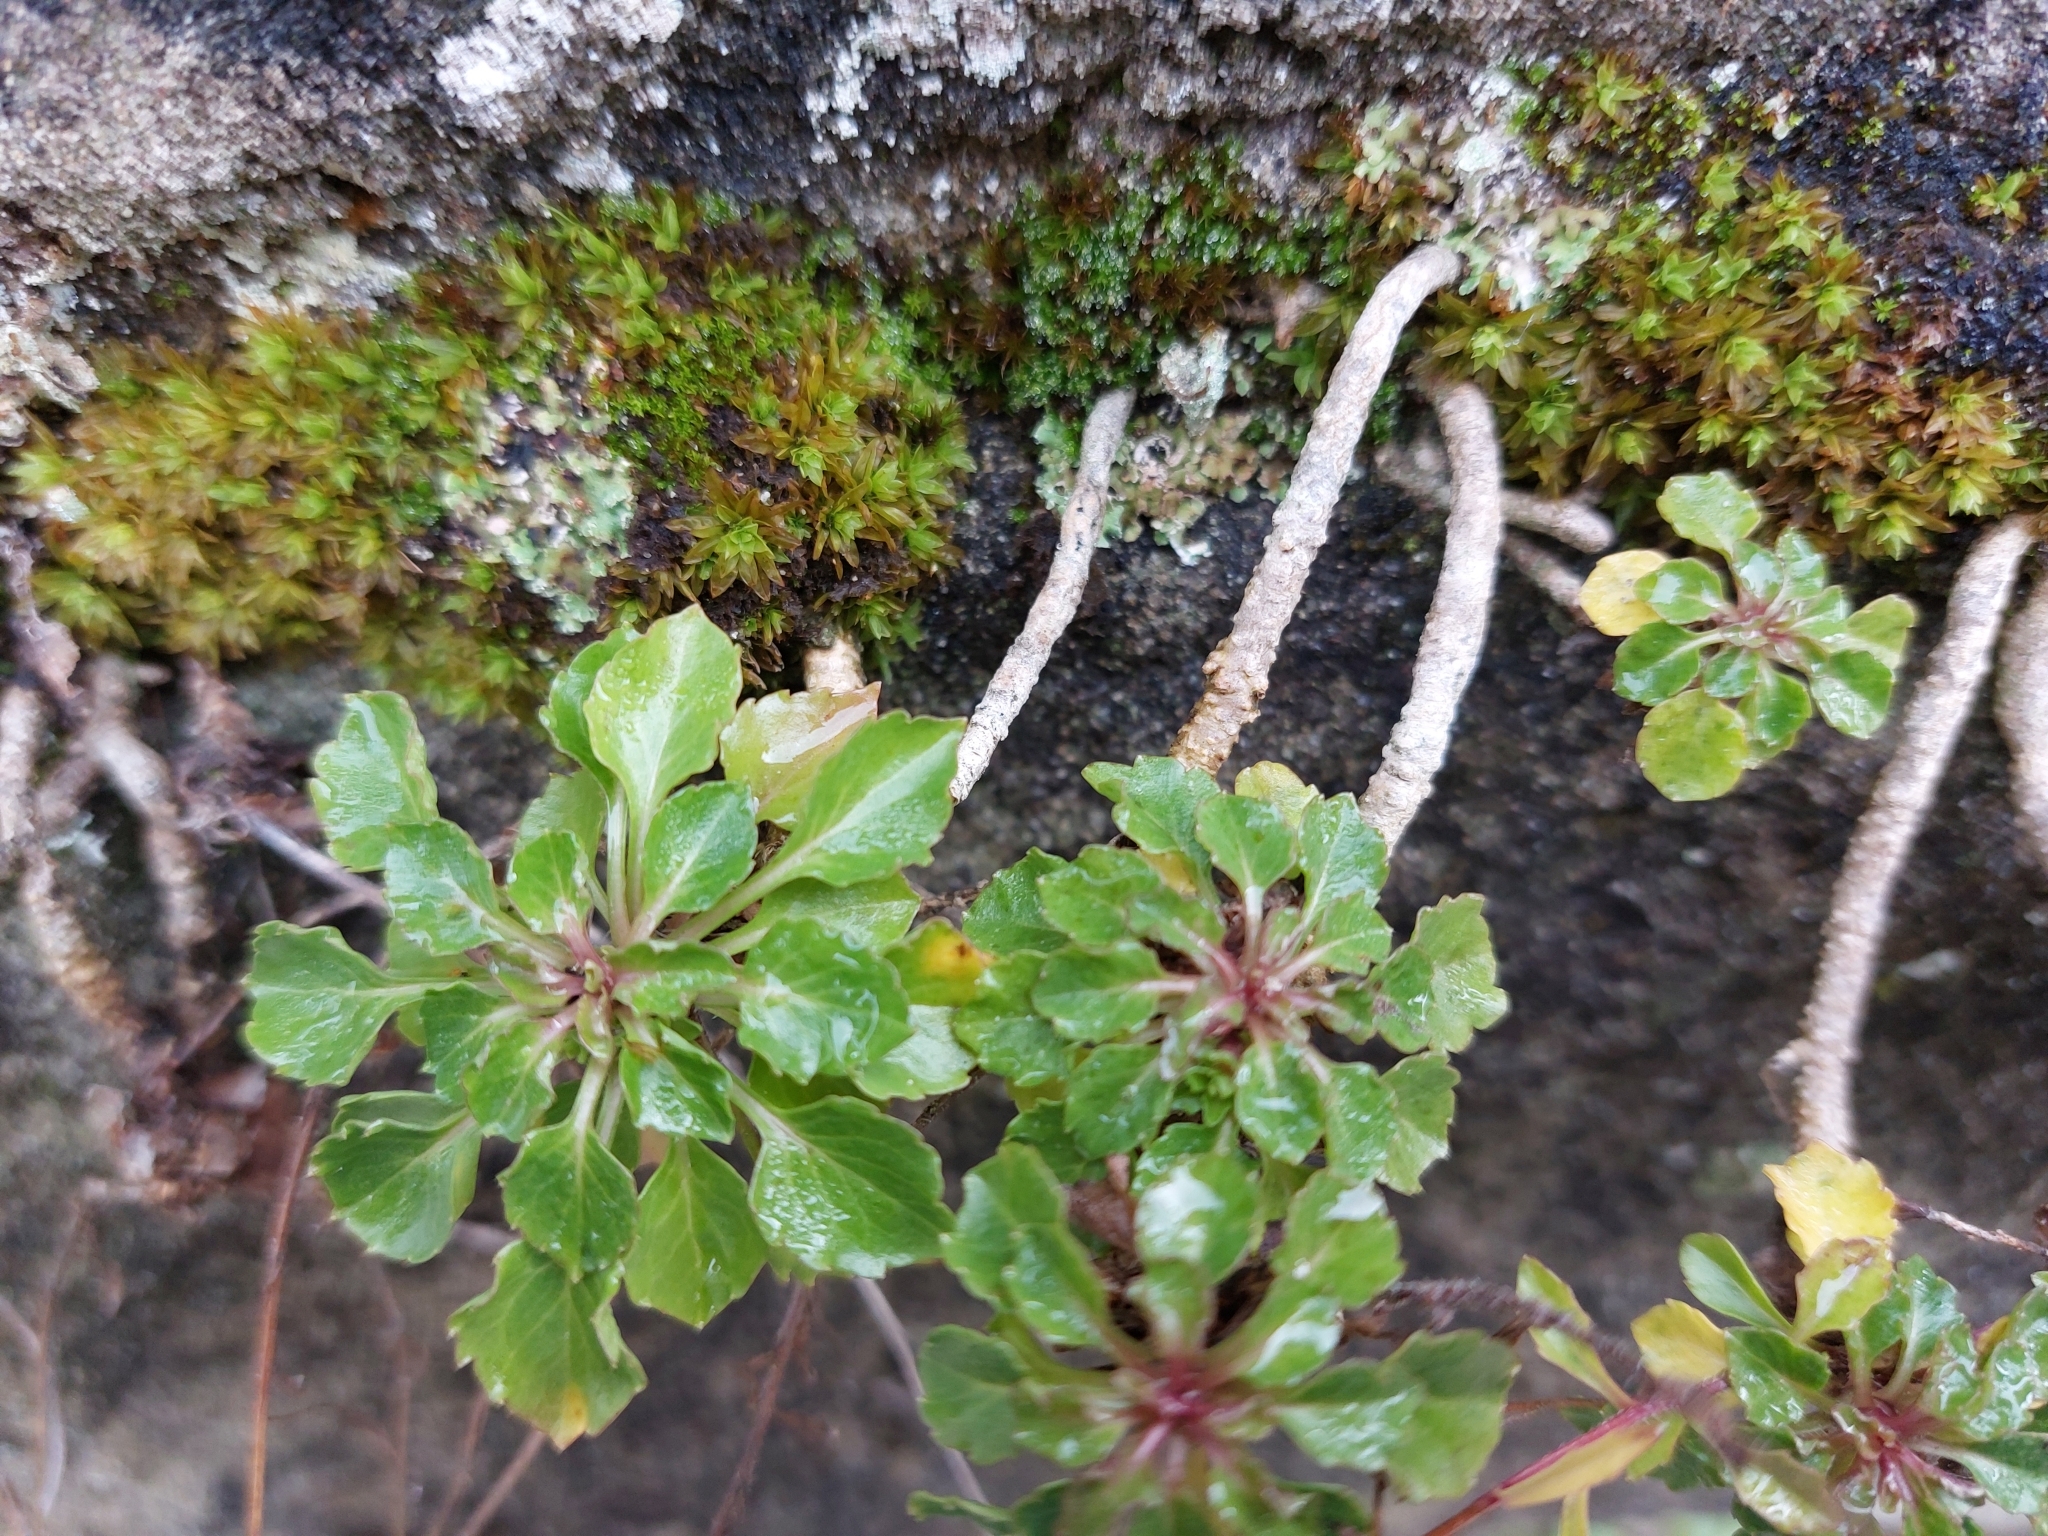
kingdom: Plantae
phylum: Tracheophyta
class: Magnoliopsida
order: Asterales
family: Campanulaceae
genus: Campanula
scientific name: Campanula cochleariifolia
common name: Fairies'-thimbles
